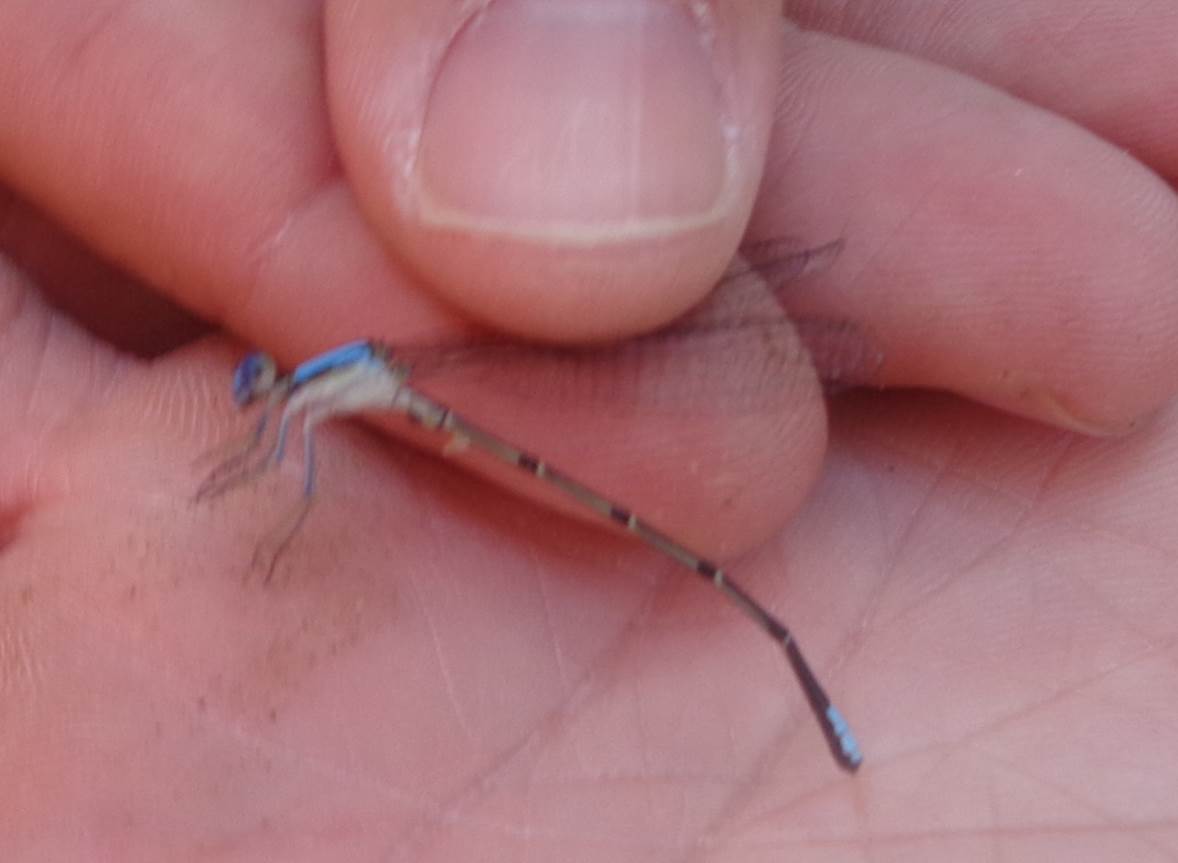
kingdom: Animalia
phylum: Arthropoda
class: Insecta
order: Odonata
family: Coenagrionidae
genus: Argia
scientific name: Argia apicalis
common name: Blue-fronted dancer
